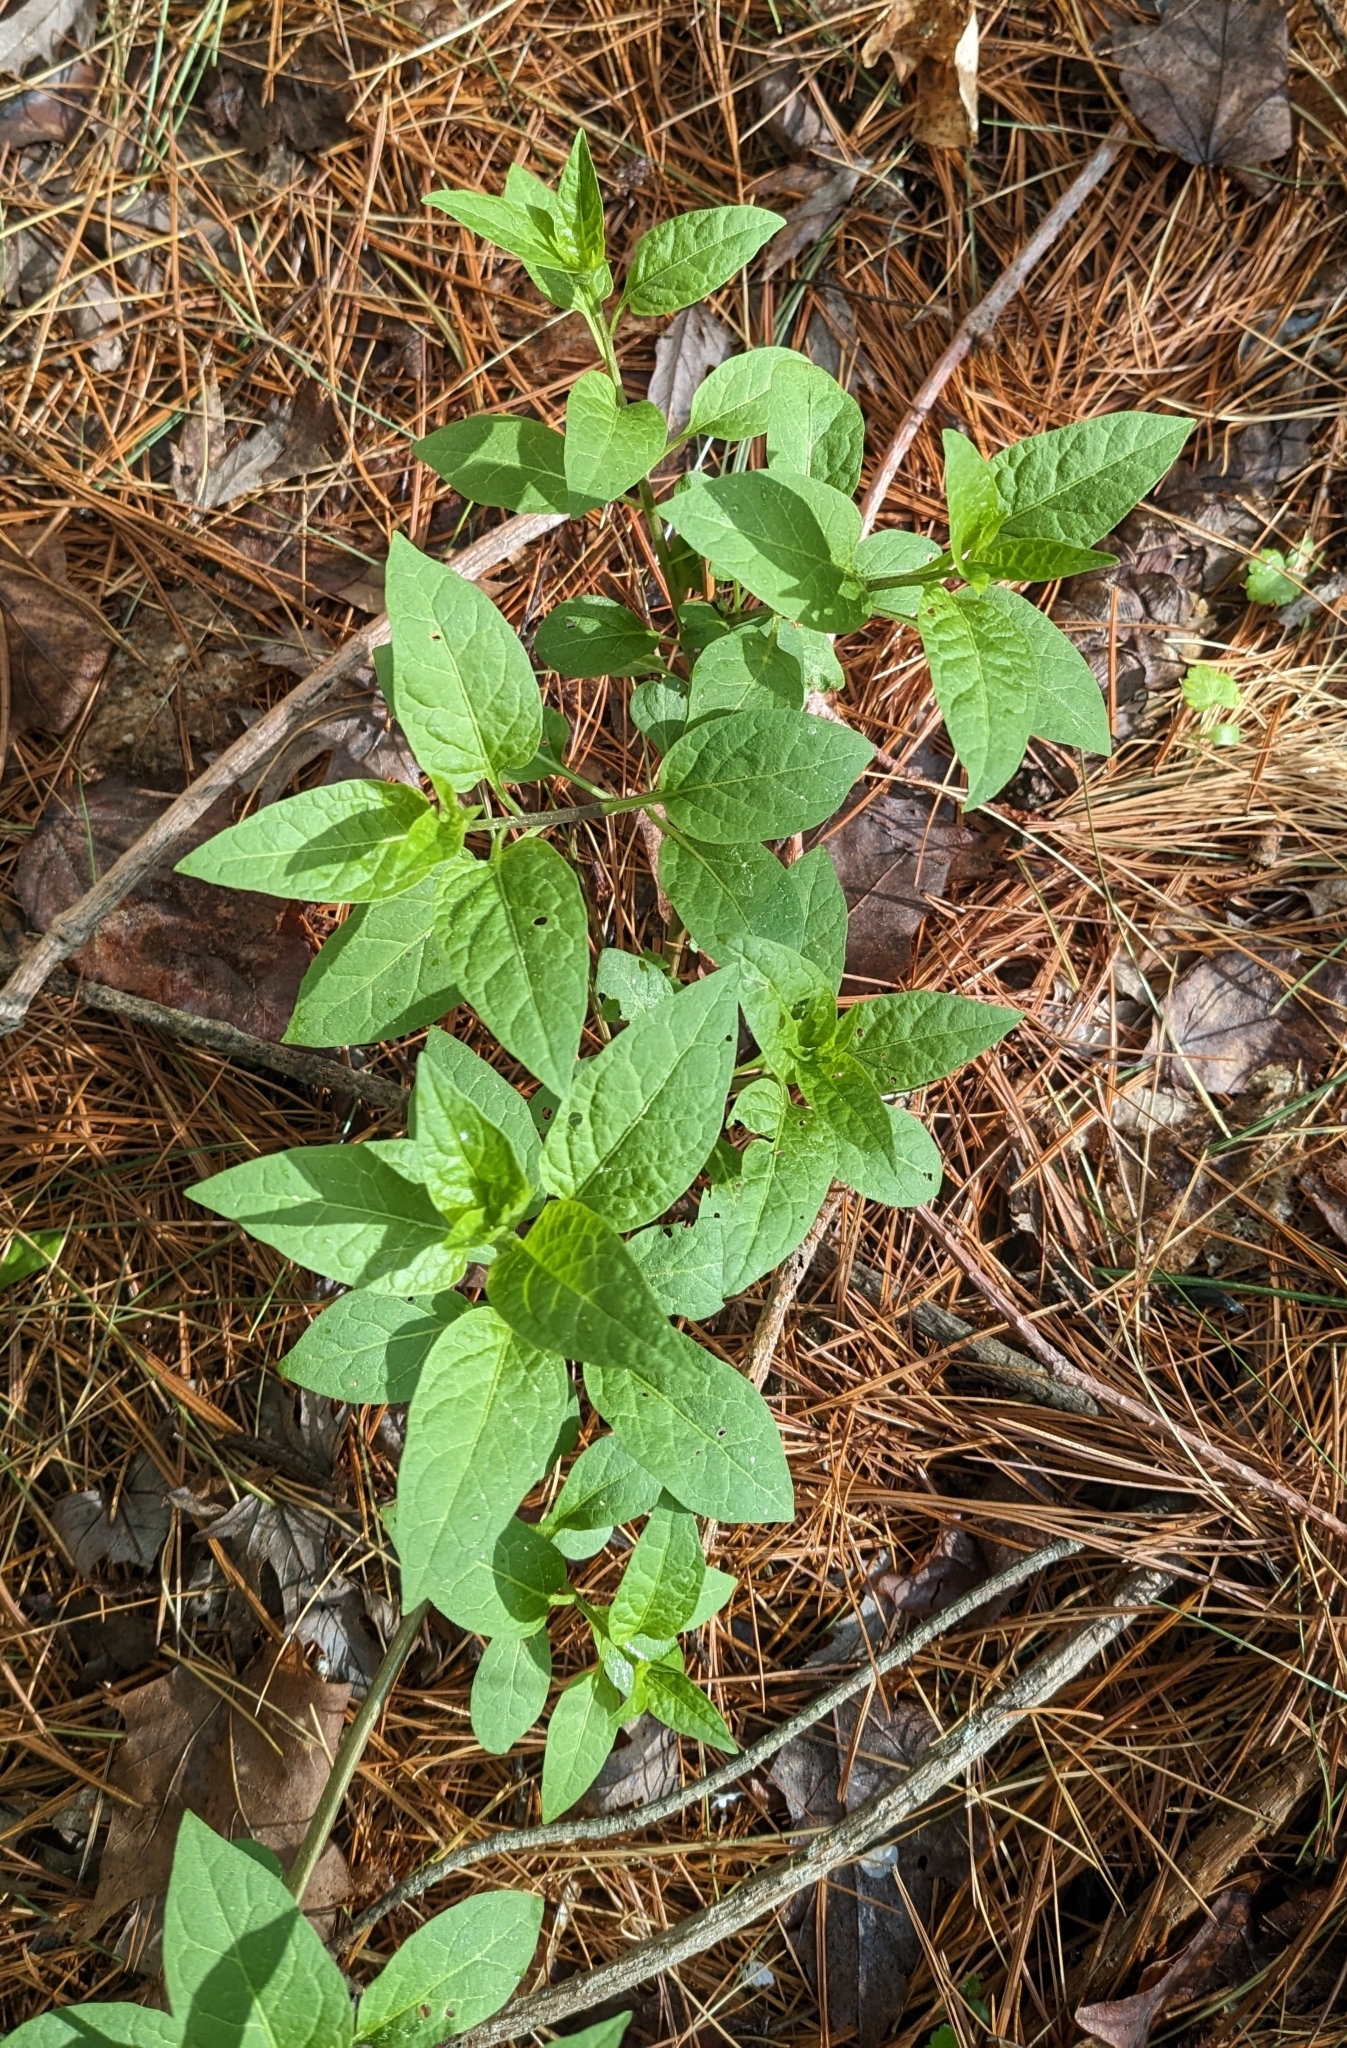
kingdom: Plantae
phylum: Tracheophyta
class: Magnoliopsida
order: Solanales
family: Solanaceae
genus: Solanum
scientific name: Solanum dulcamara
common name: Climbing nightshade
